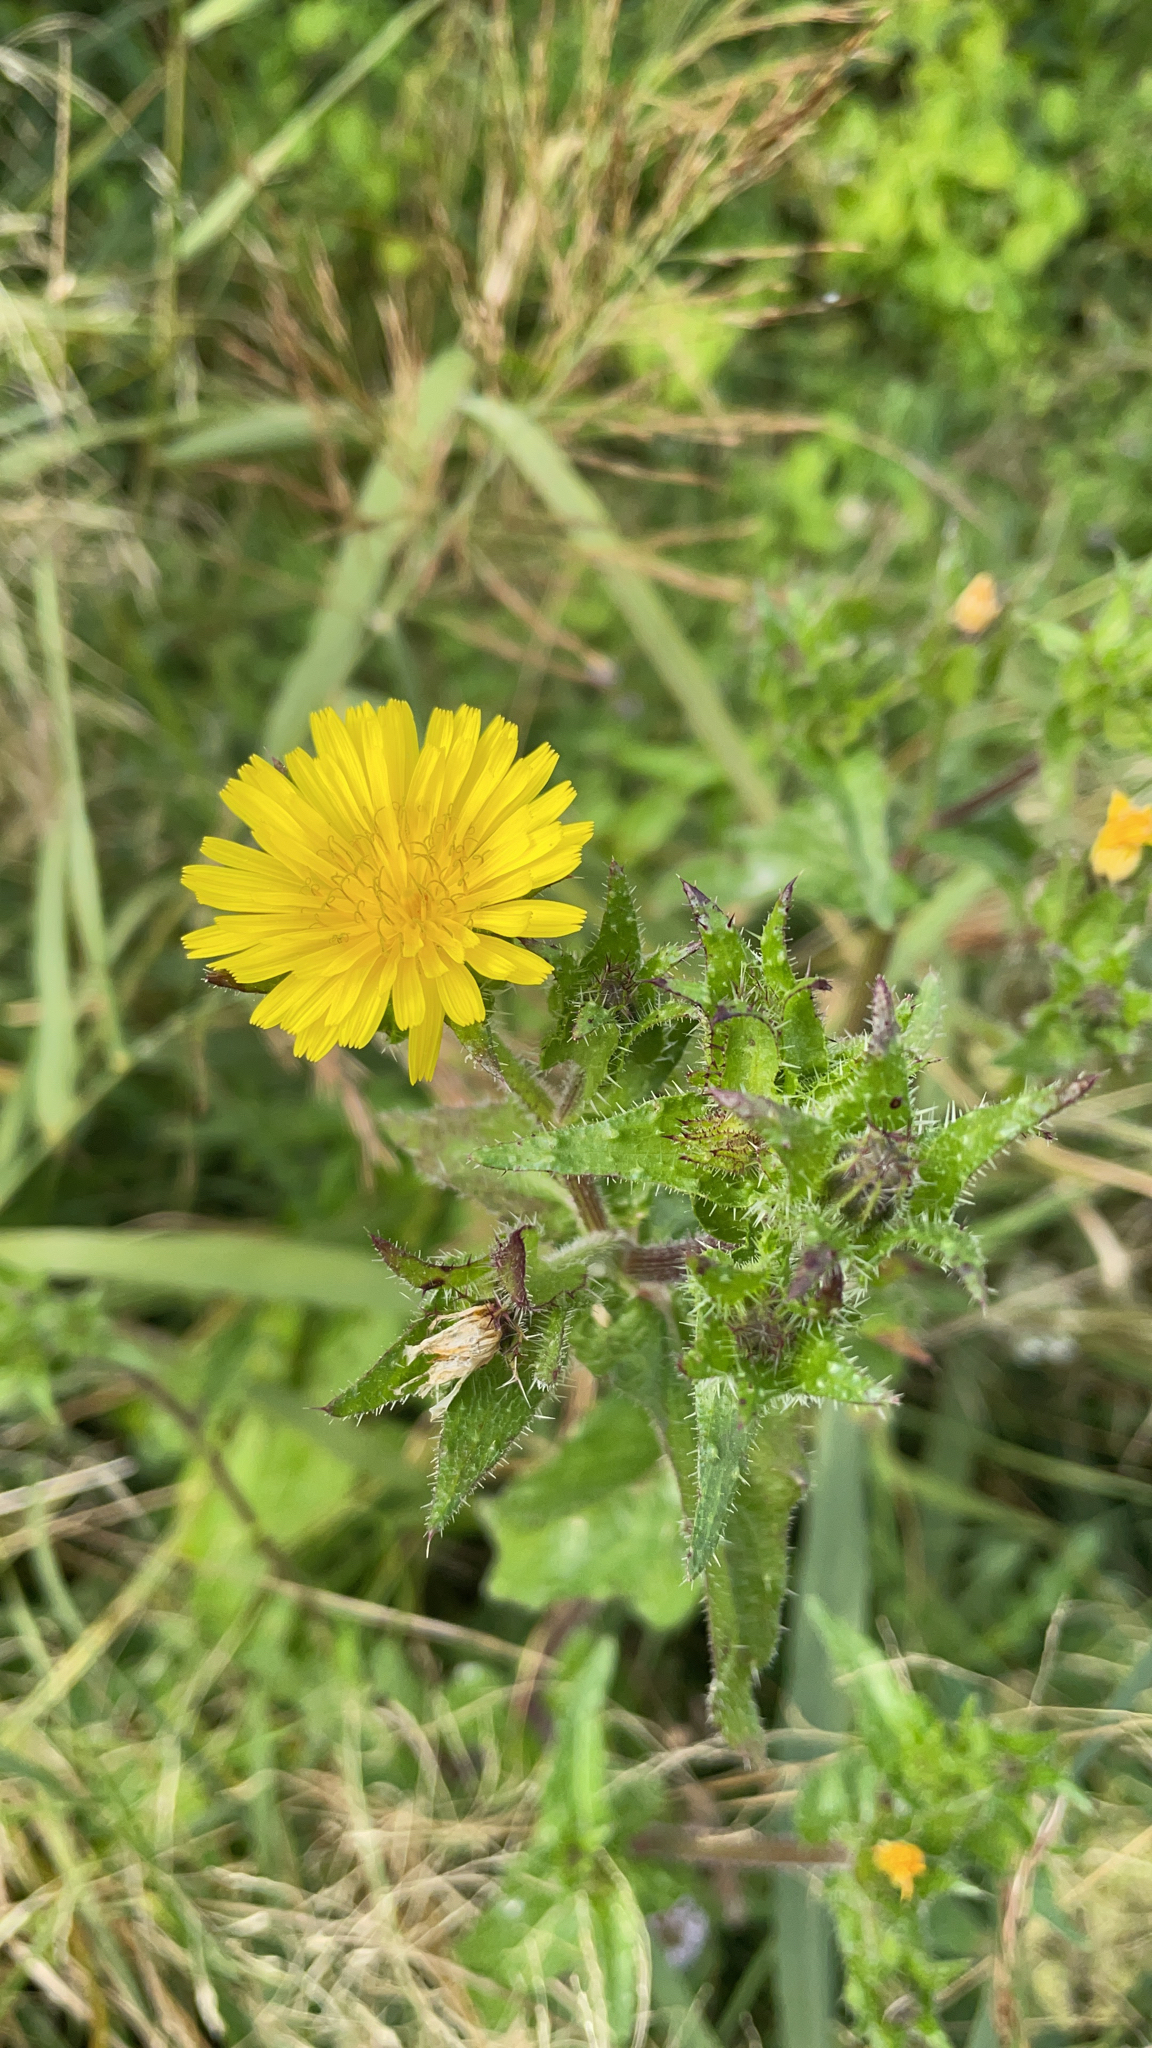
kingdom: Plantae
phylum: Tracheophyta
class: Magnoliopsida
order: Asterales
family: Asteraceae
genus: Helminthotheca
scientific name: Helminthotheca echioides
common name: Ox-tongue
